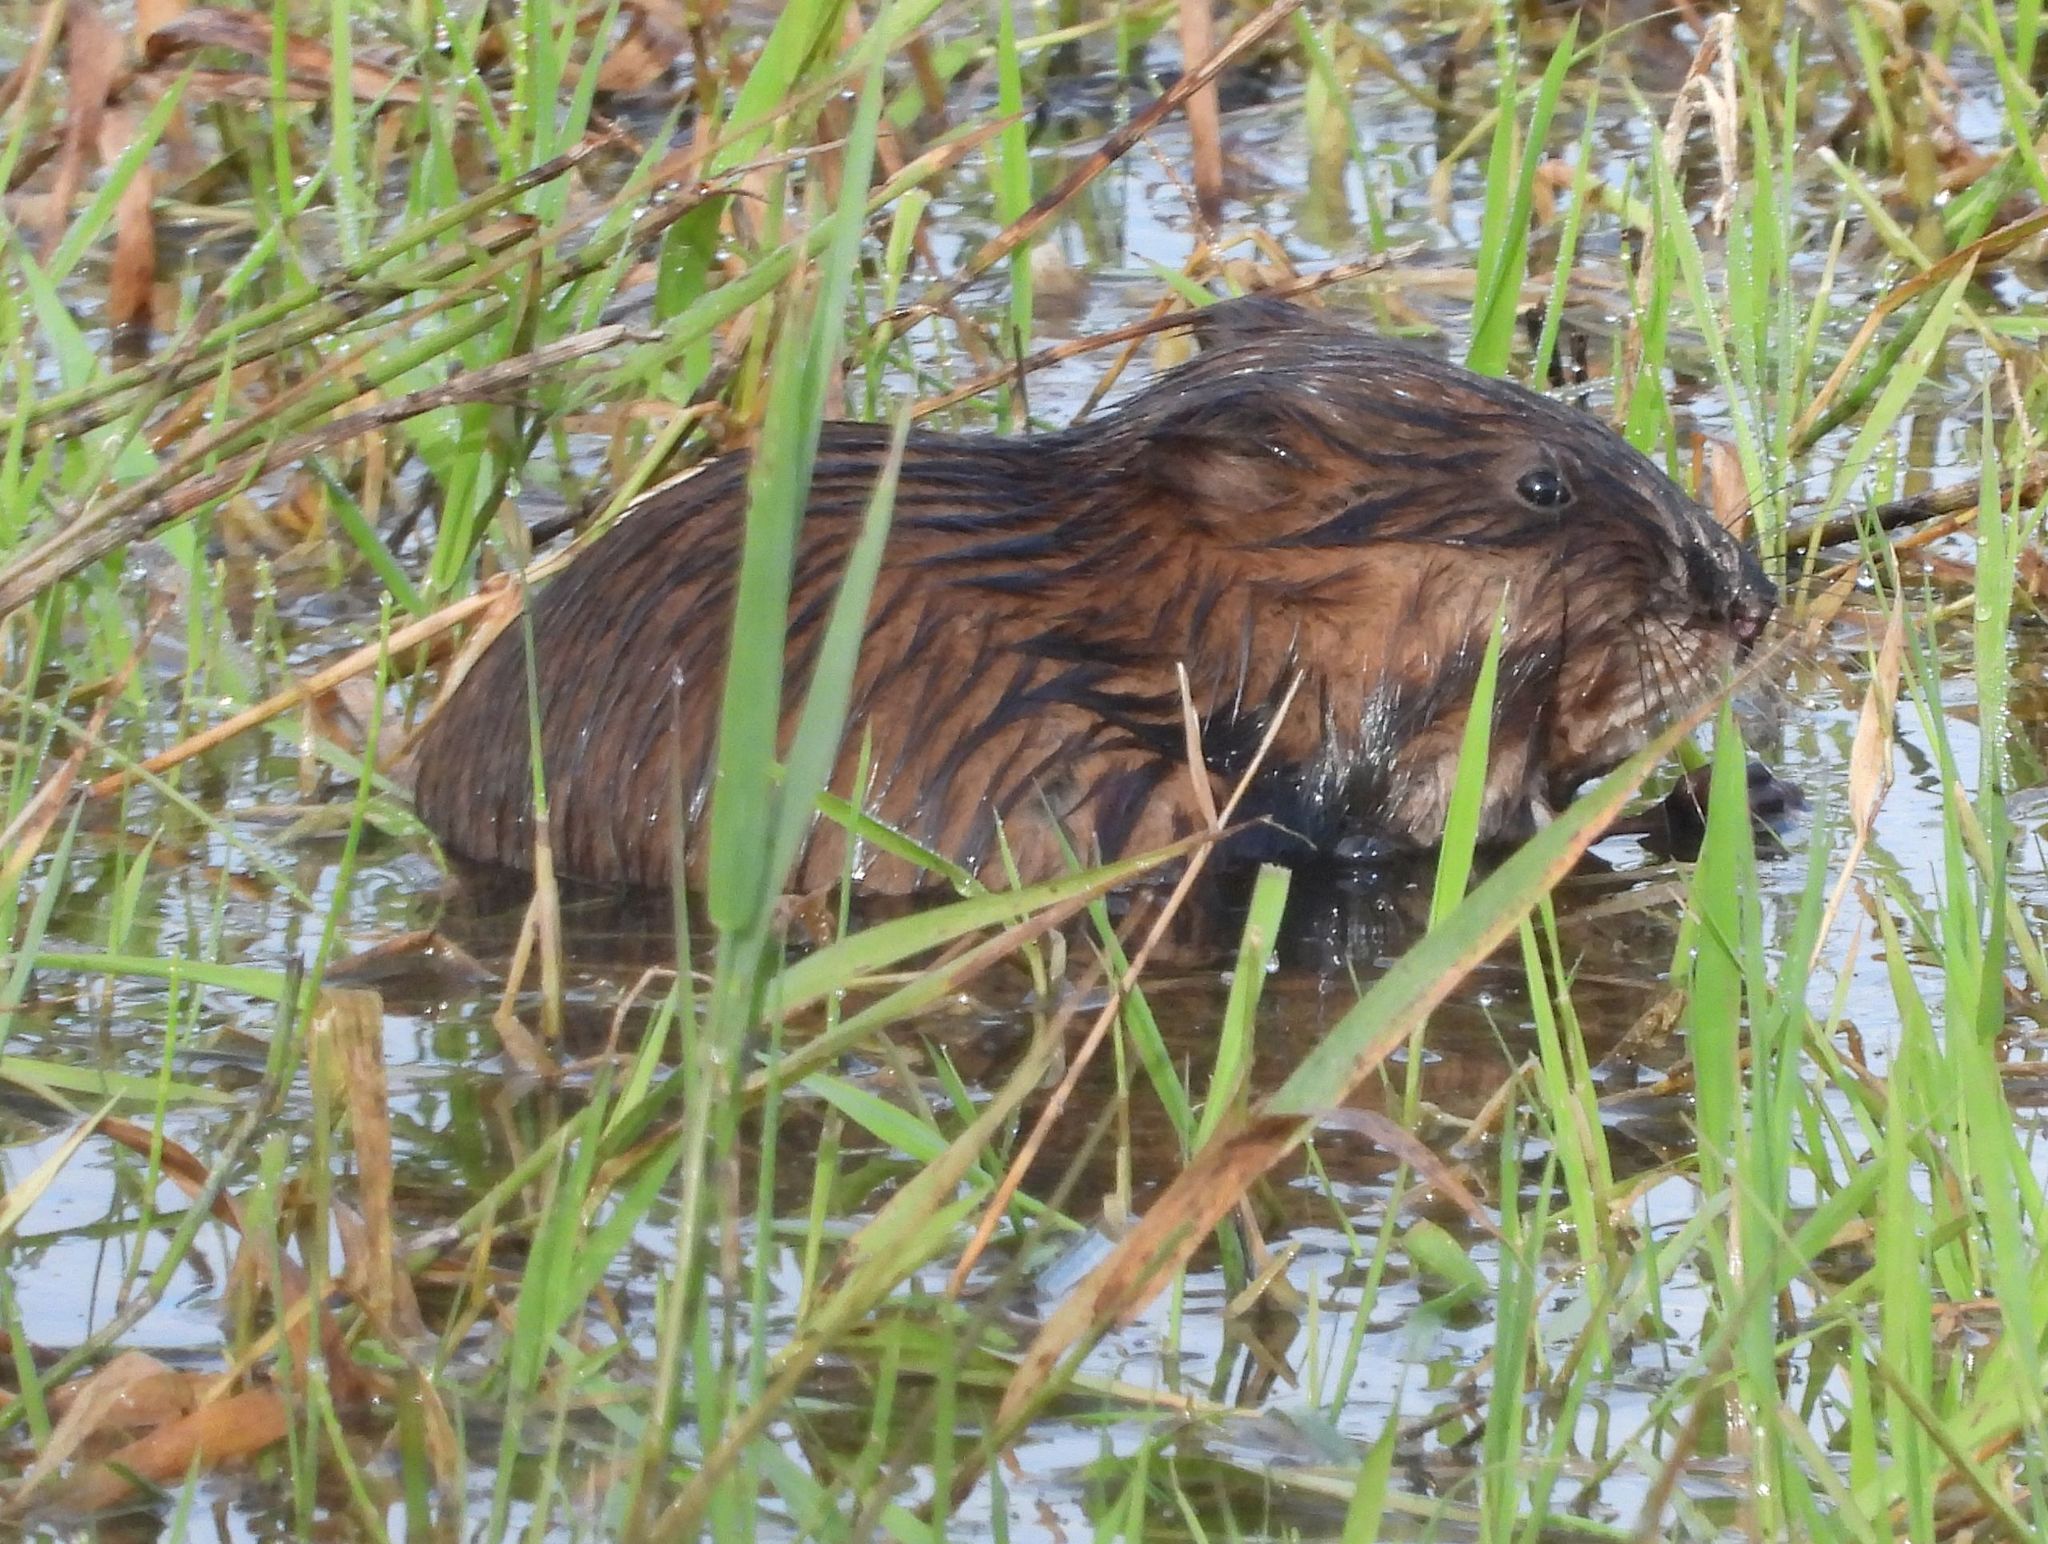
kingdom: Animalia
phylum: Chordata
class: Mammalia
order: Rodentia
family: Cricetidae
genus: Ondatra
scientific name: Ondatra zibethicus
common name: Muskrat
